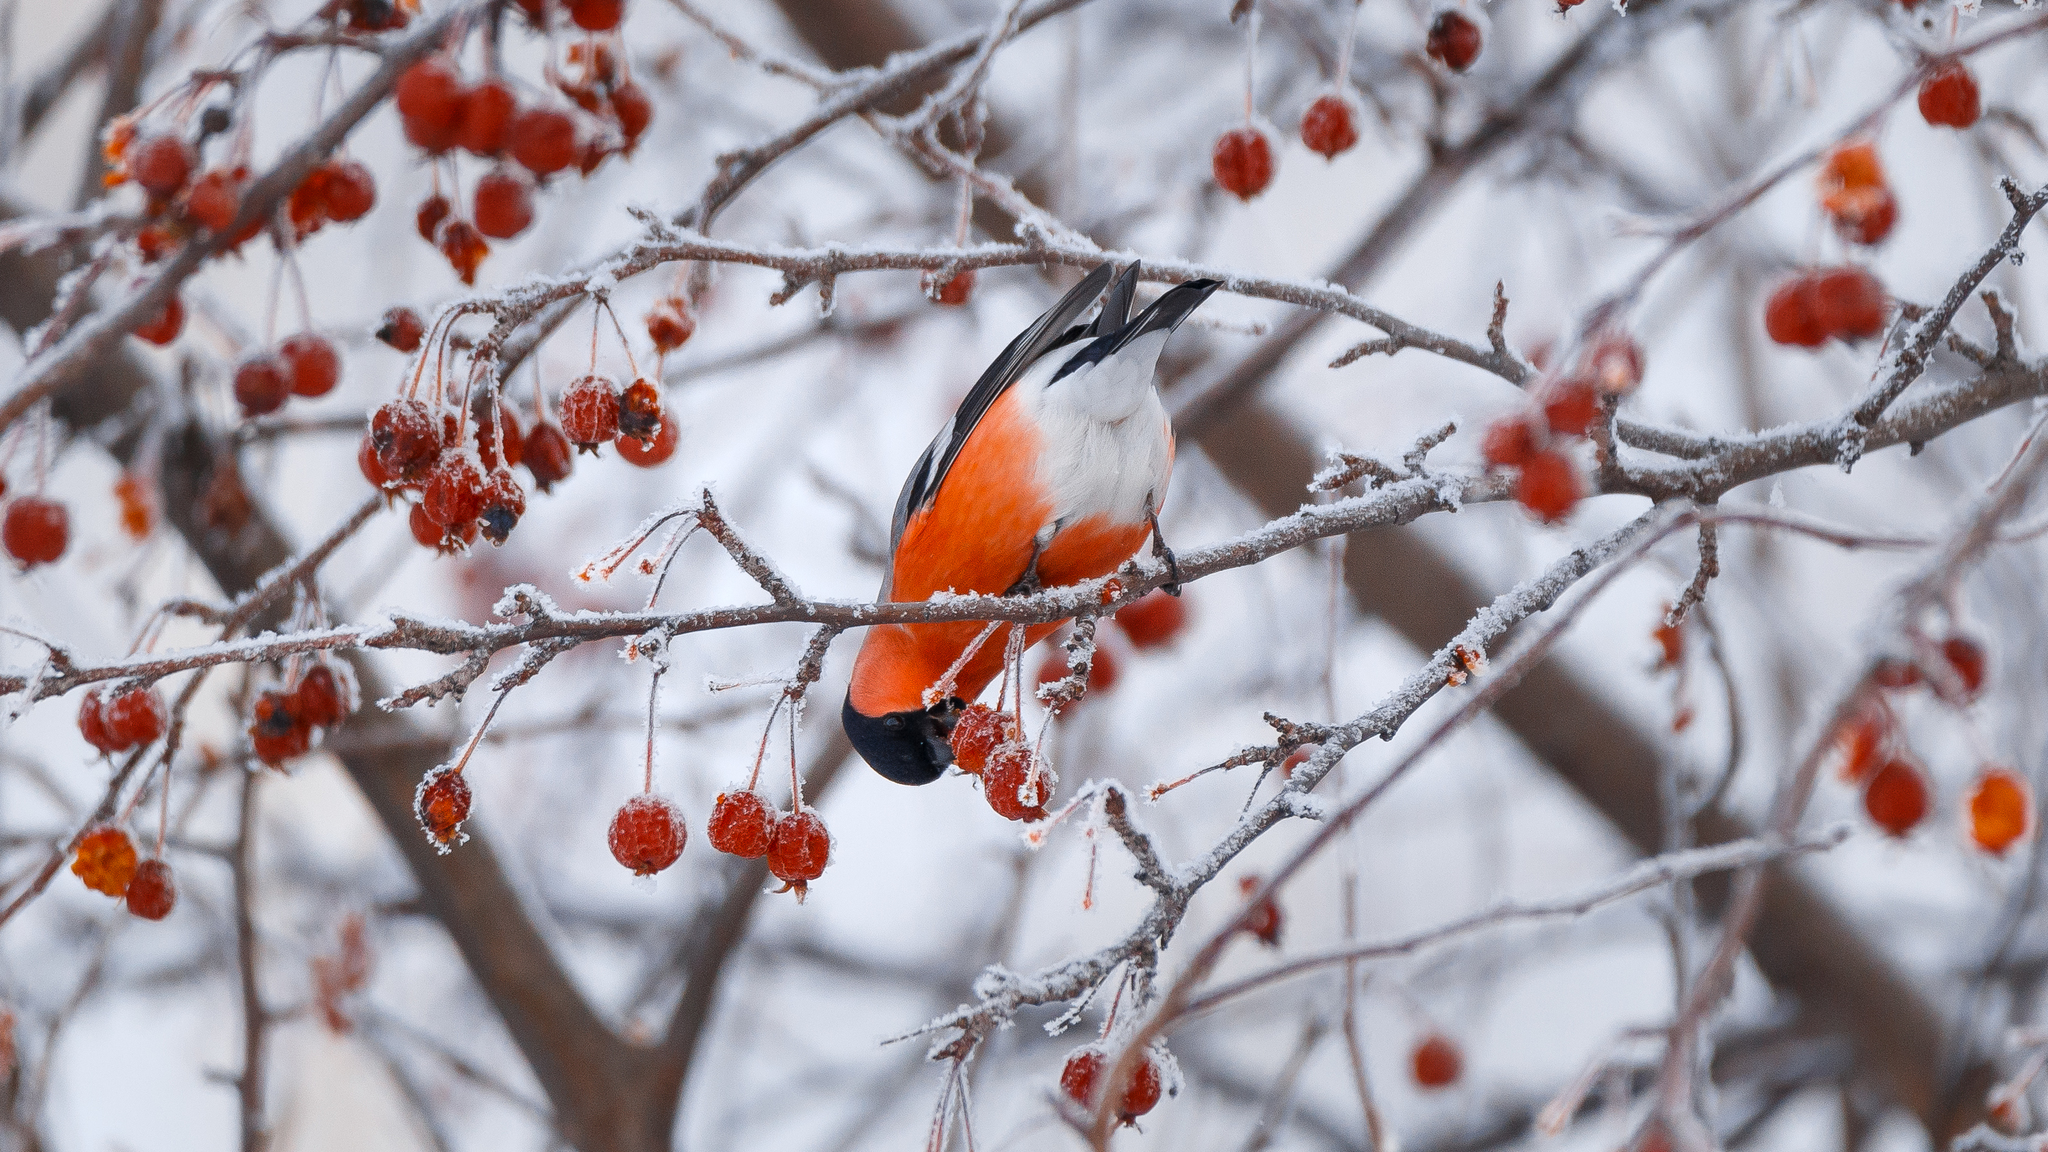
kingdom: Animalia
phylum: Chordata
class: Aves
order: Passeriformes
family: Fringillidae
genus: Pyrrhula
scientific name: Pyrrhula pyrrhula
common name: Eurasian bullfinch
